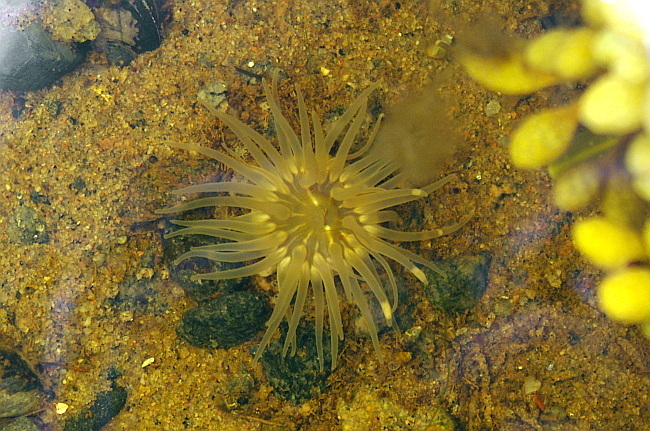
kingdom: Animalia
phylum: Cnidaria
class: Anthozoa
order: Actiniaria
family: Actiniidae
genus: Aulactinia
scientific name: Aulactinia stella
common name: Silver-spotted sea anemone
